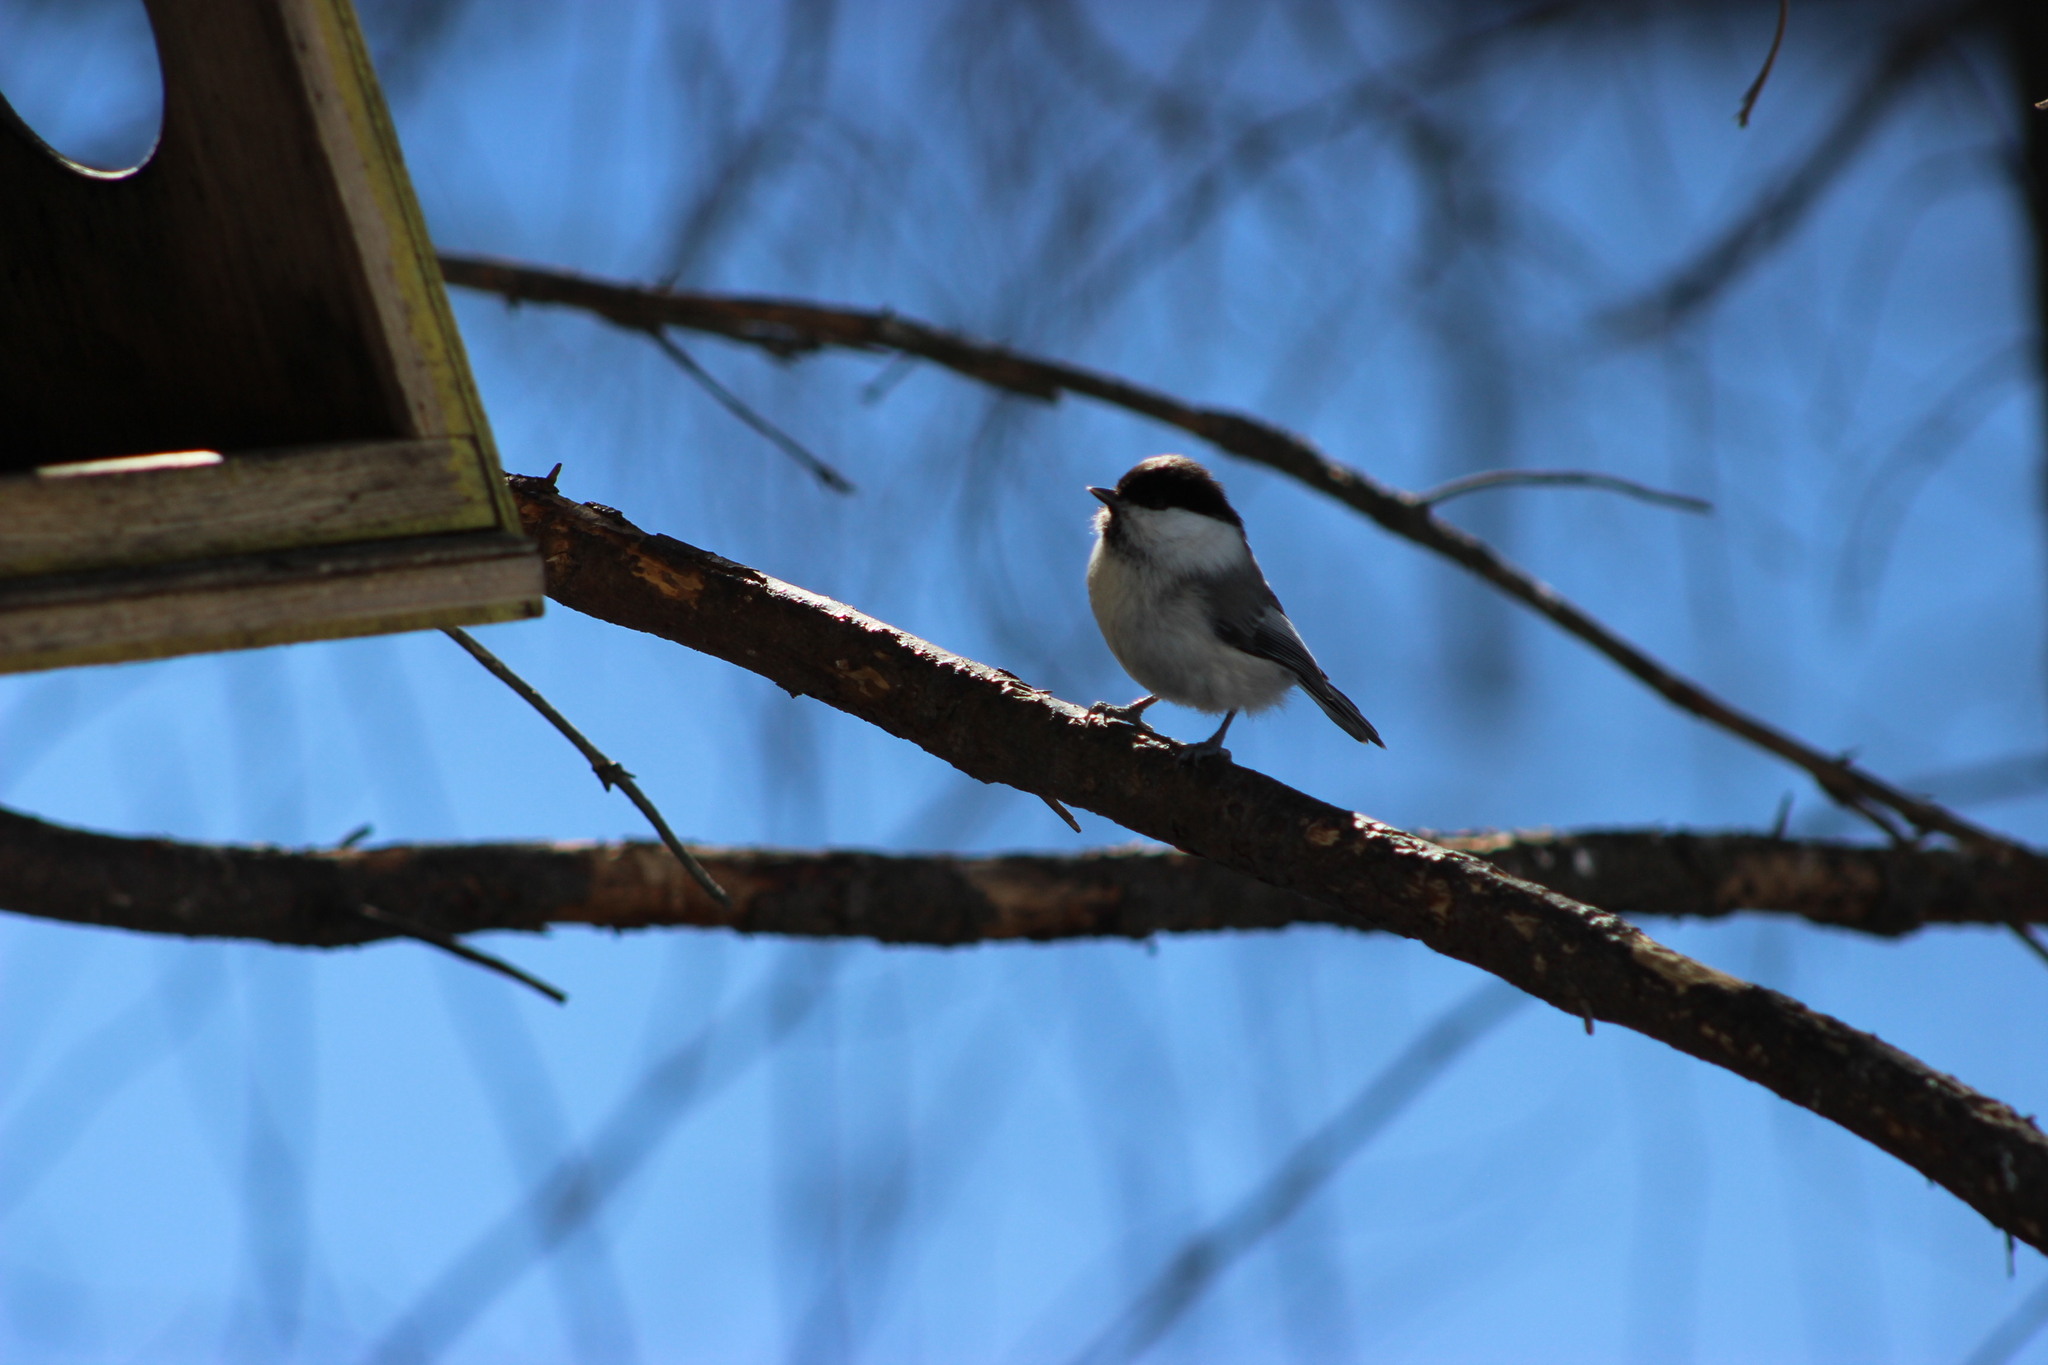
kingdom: Animalia
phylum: Chordata
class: Aves
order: Passeriformes
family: Paridae
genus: Poecile
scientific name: Poecile montanus
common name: Willow tit
